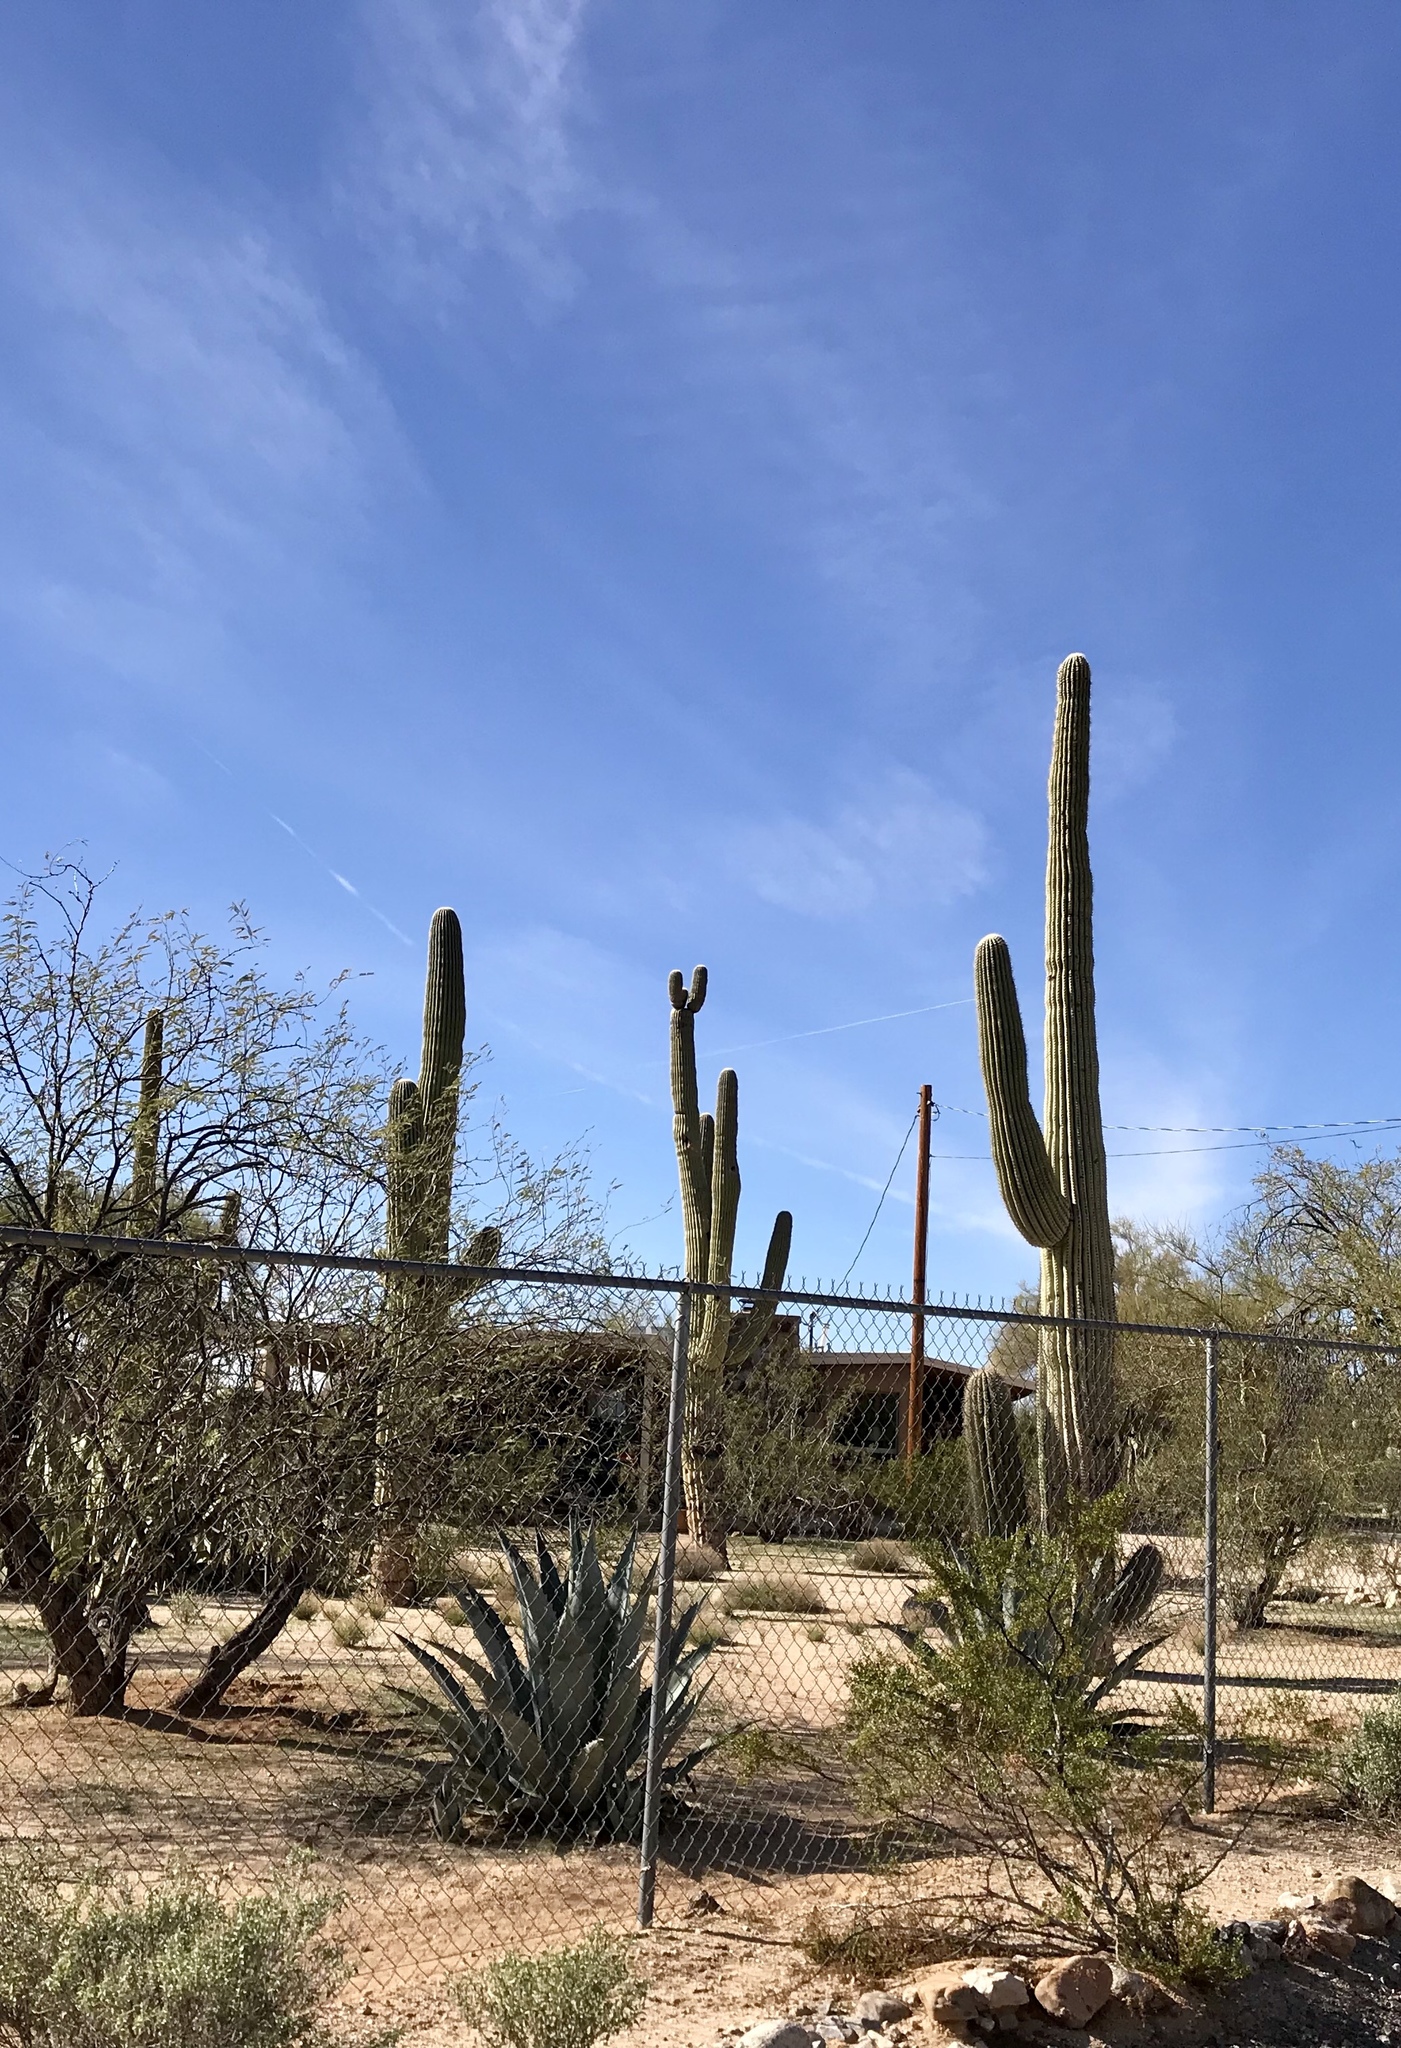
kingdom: Plantae
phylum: Tracheophyta
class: Magnoliopsida
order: Caryophyllales
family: Cactaceae
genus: Carnegiea
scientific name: Carnegiea gigantea
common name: Saguaro
